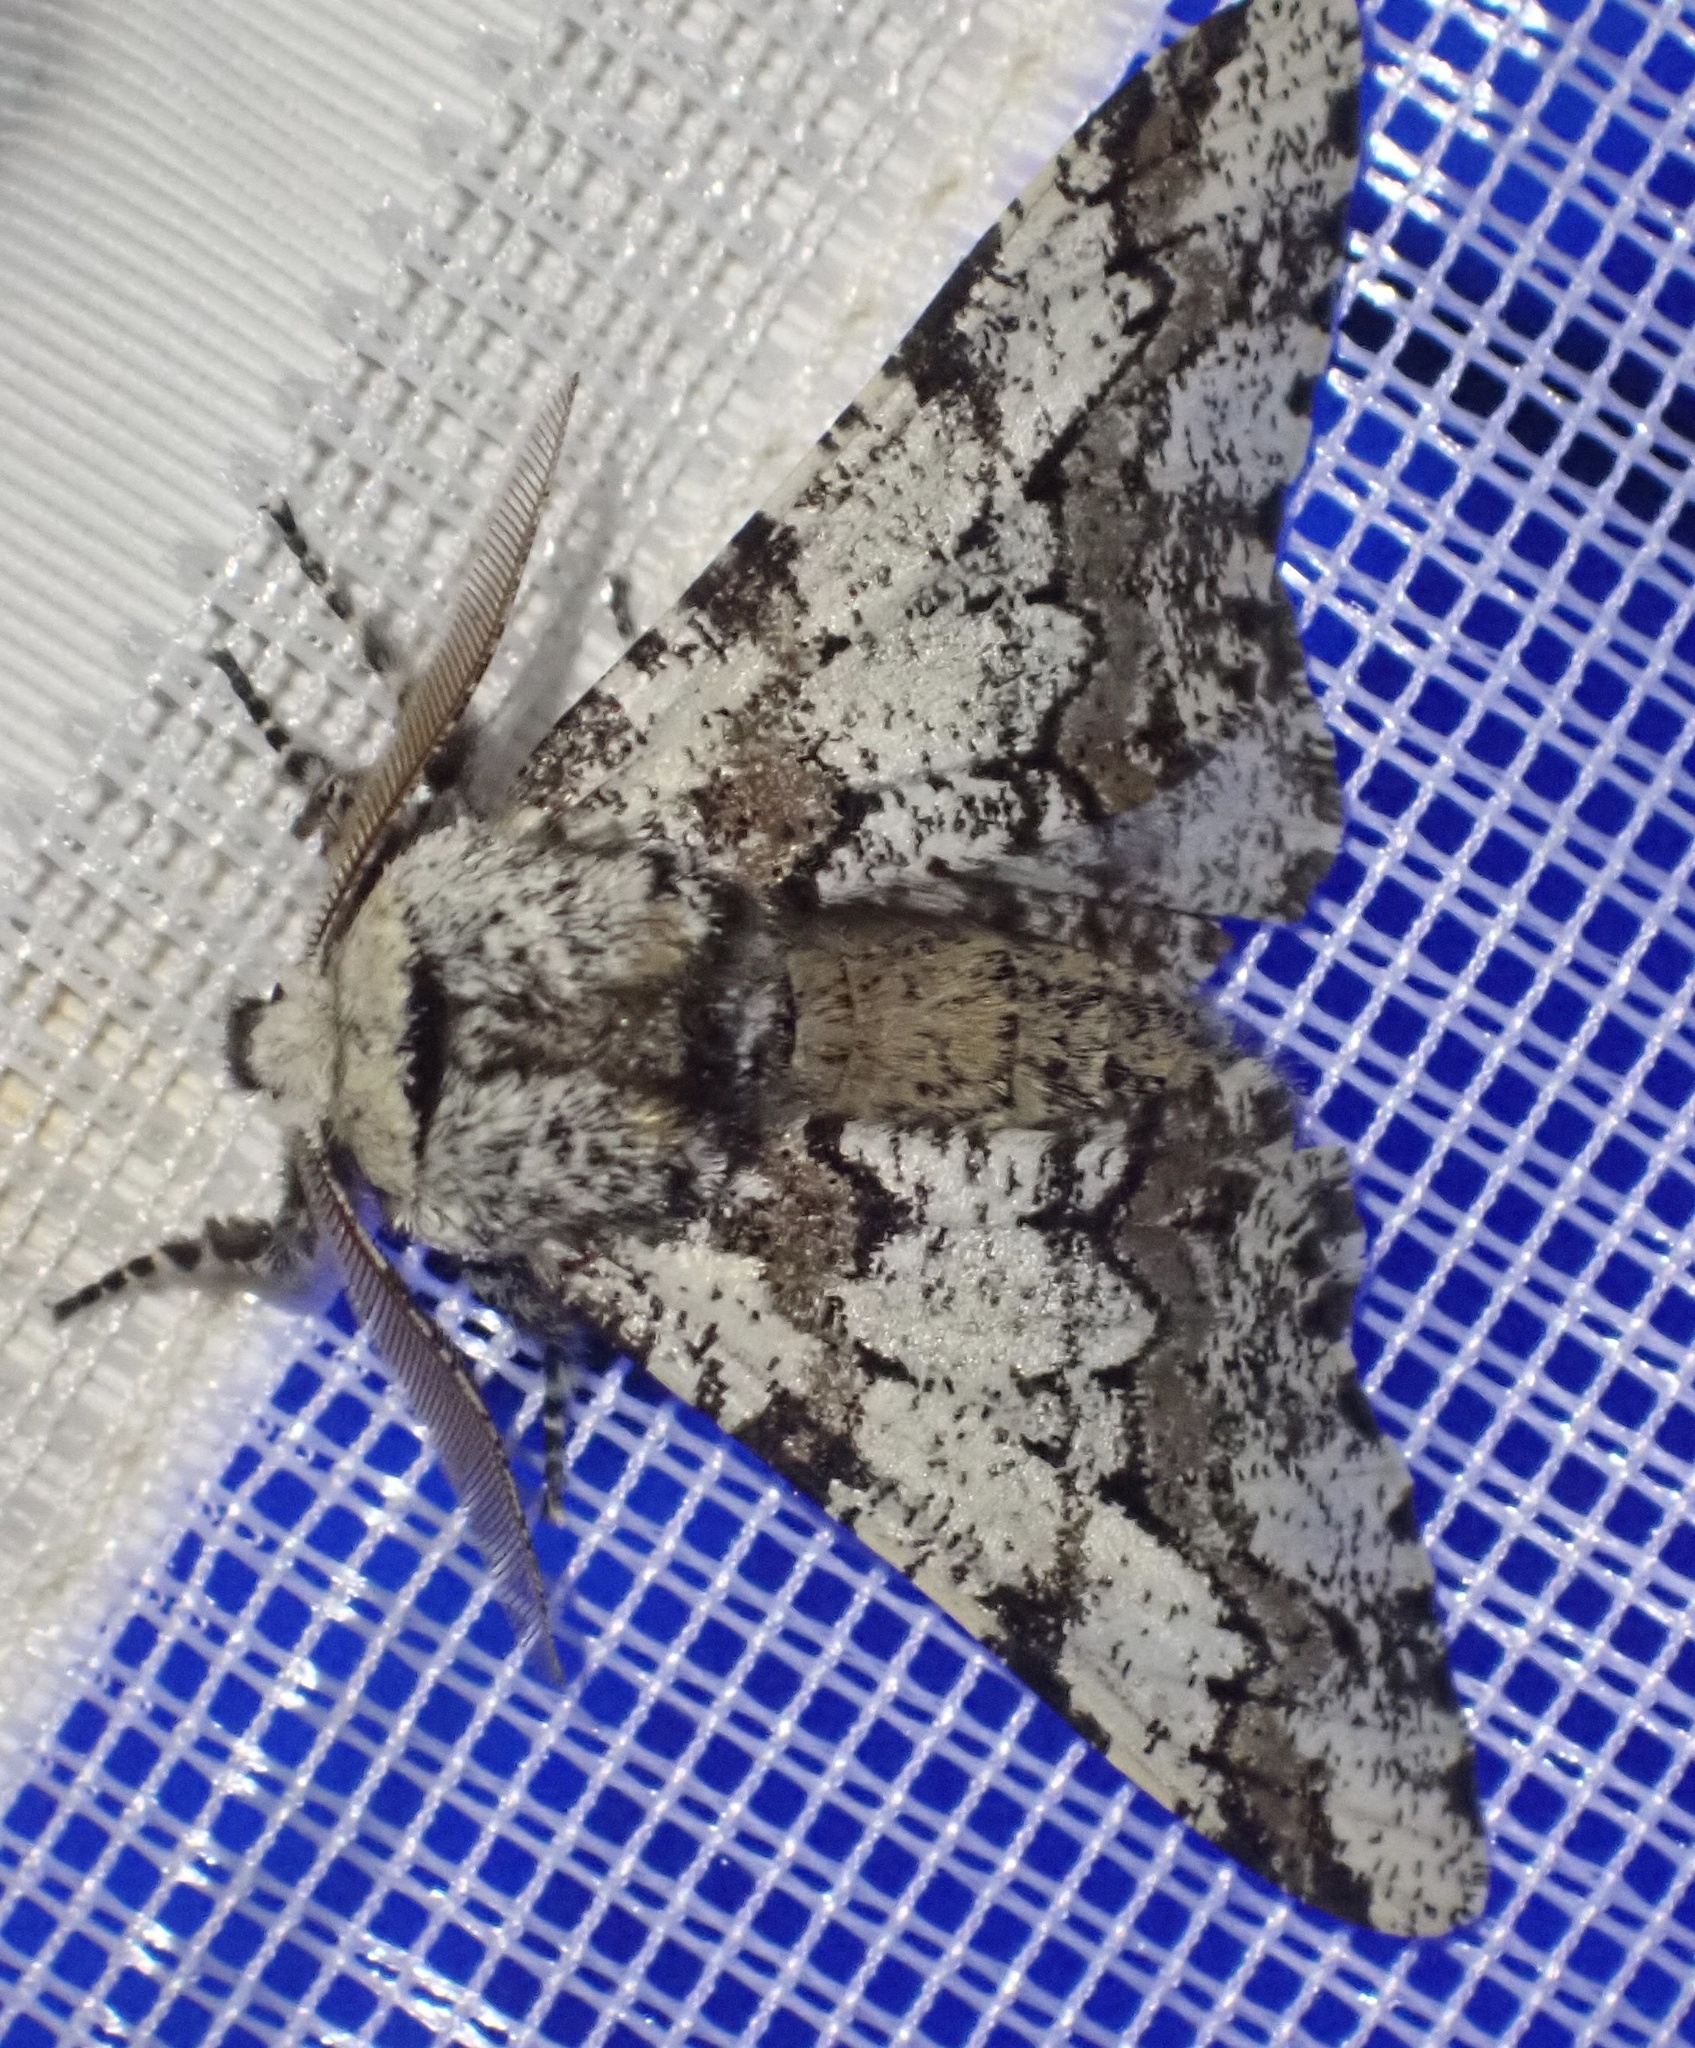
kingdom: Animalia
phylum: Arthropoda
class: Insecta
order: Lepidoptera
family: Geometridae
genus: Biston
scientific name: Biston strataria
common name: Oak beauty
